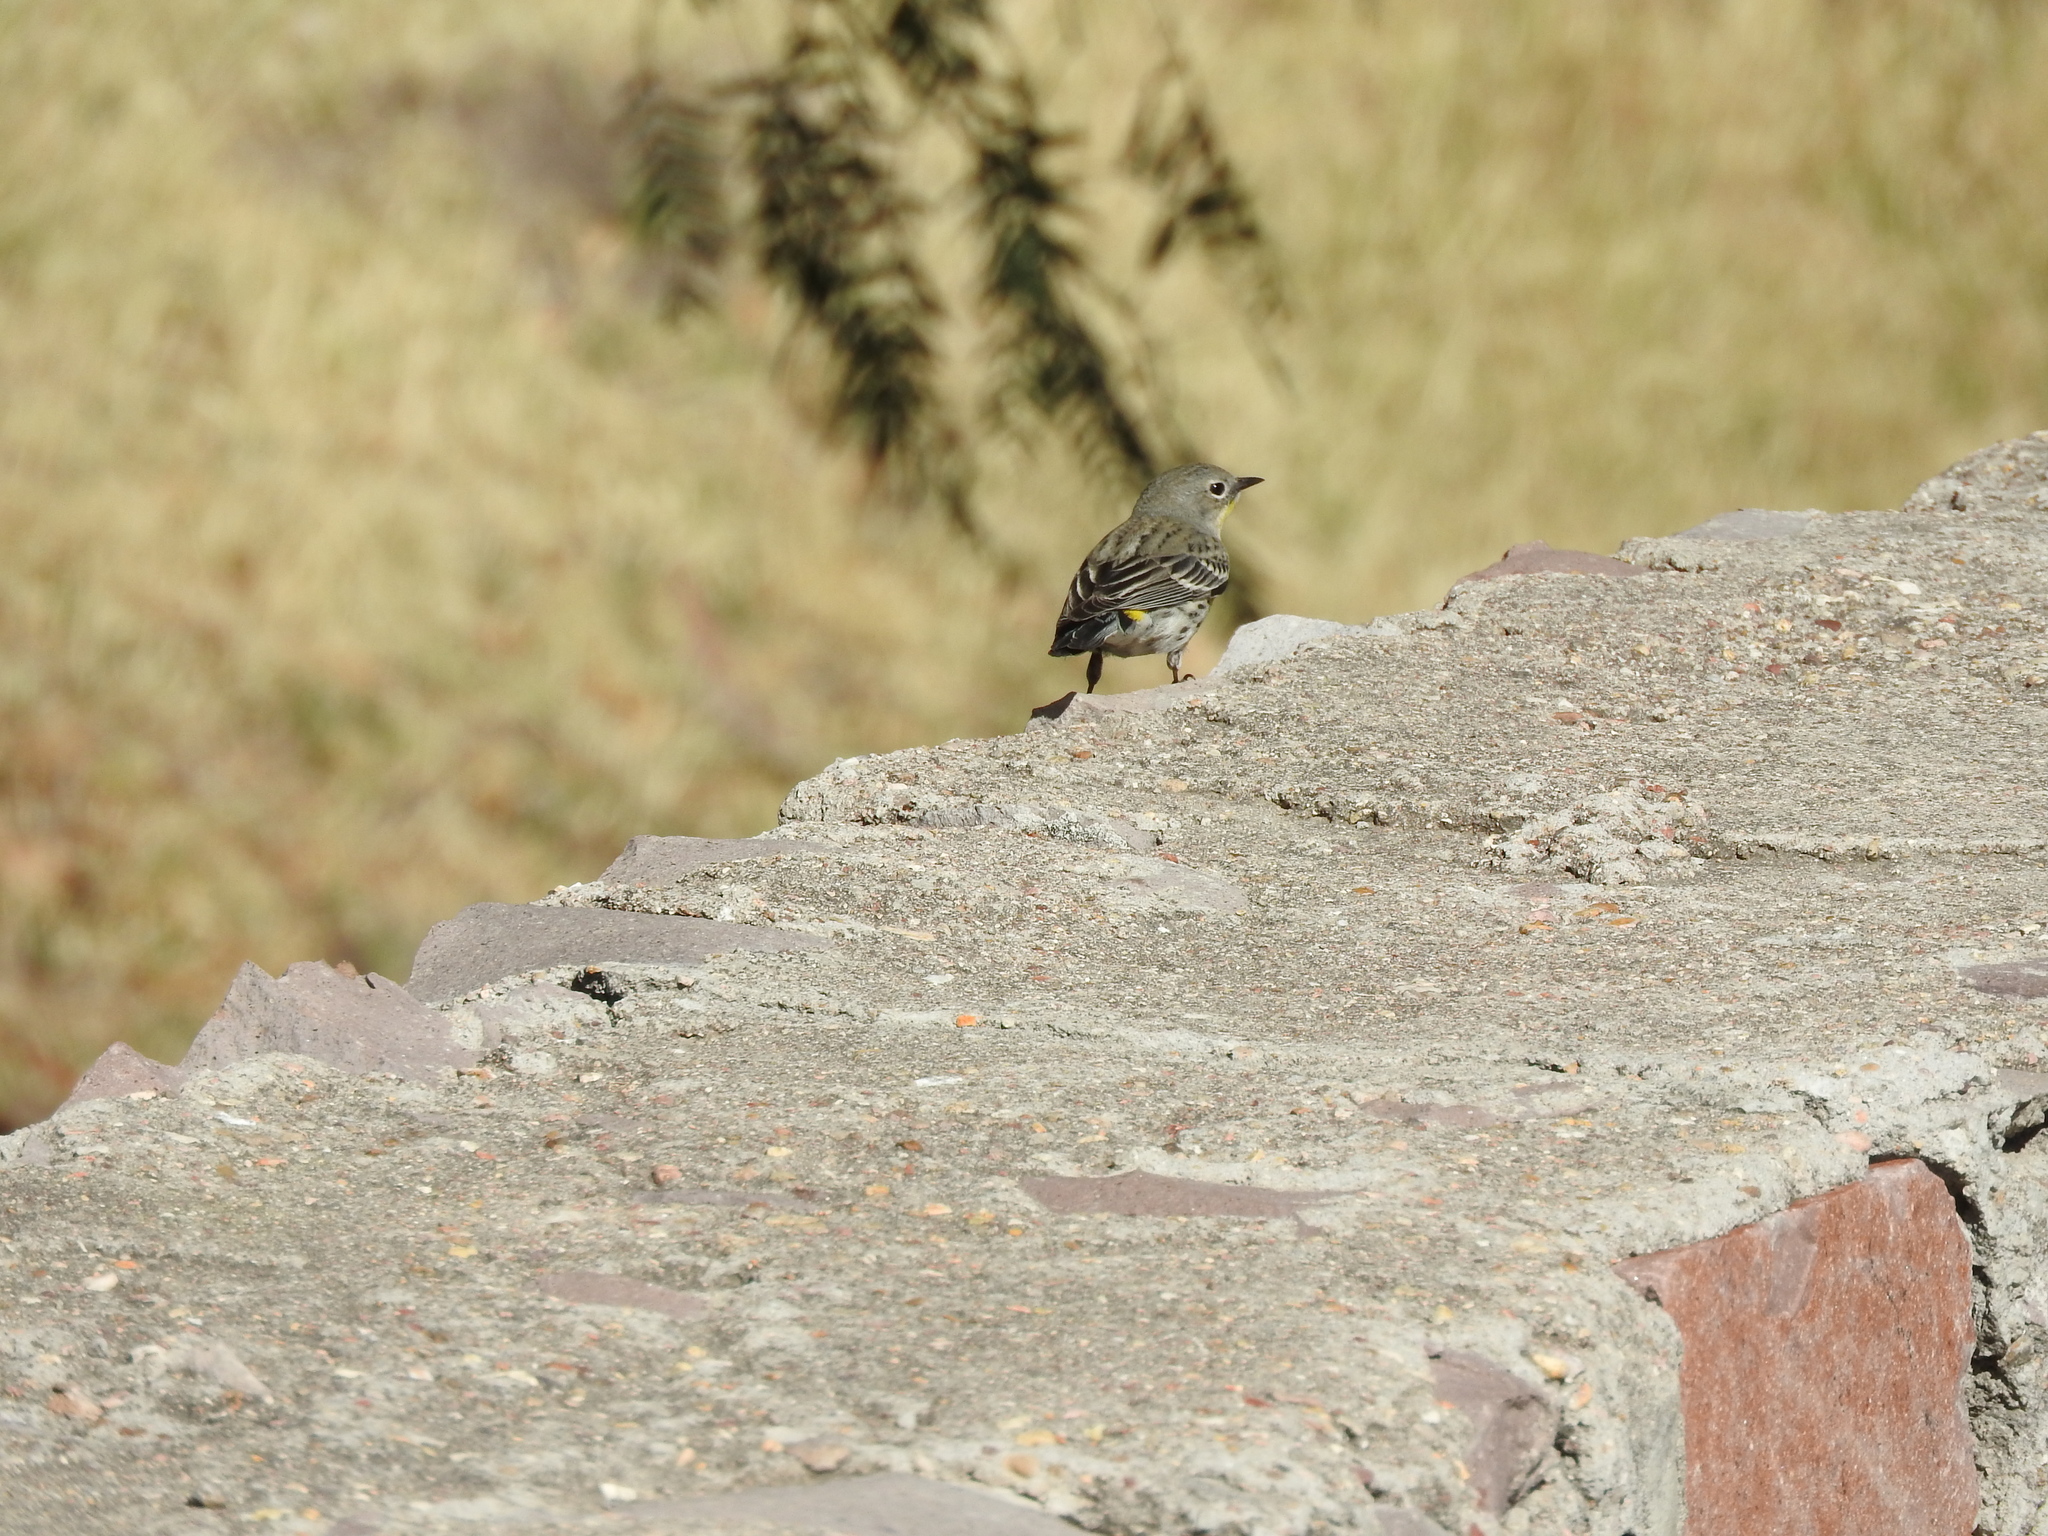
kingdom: Animalia
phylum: Chordata
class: Aves
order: Passeriformes
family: Parulidae
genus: Setophaga
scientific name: Setophaga coronata
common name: Myrtle warbler
